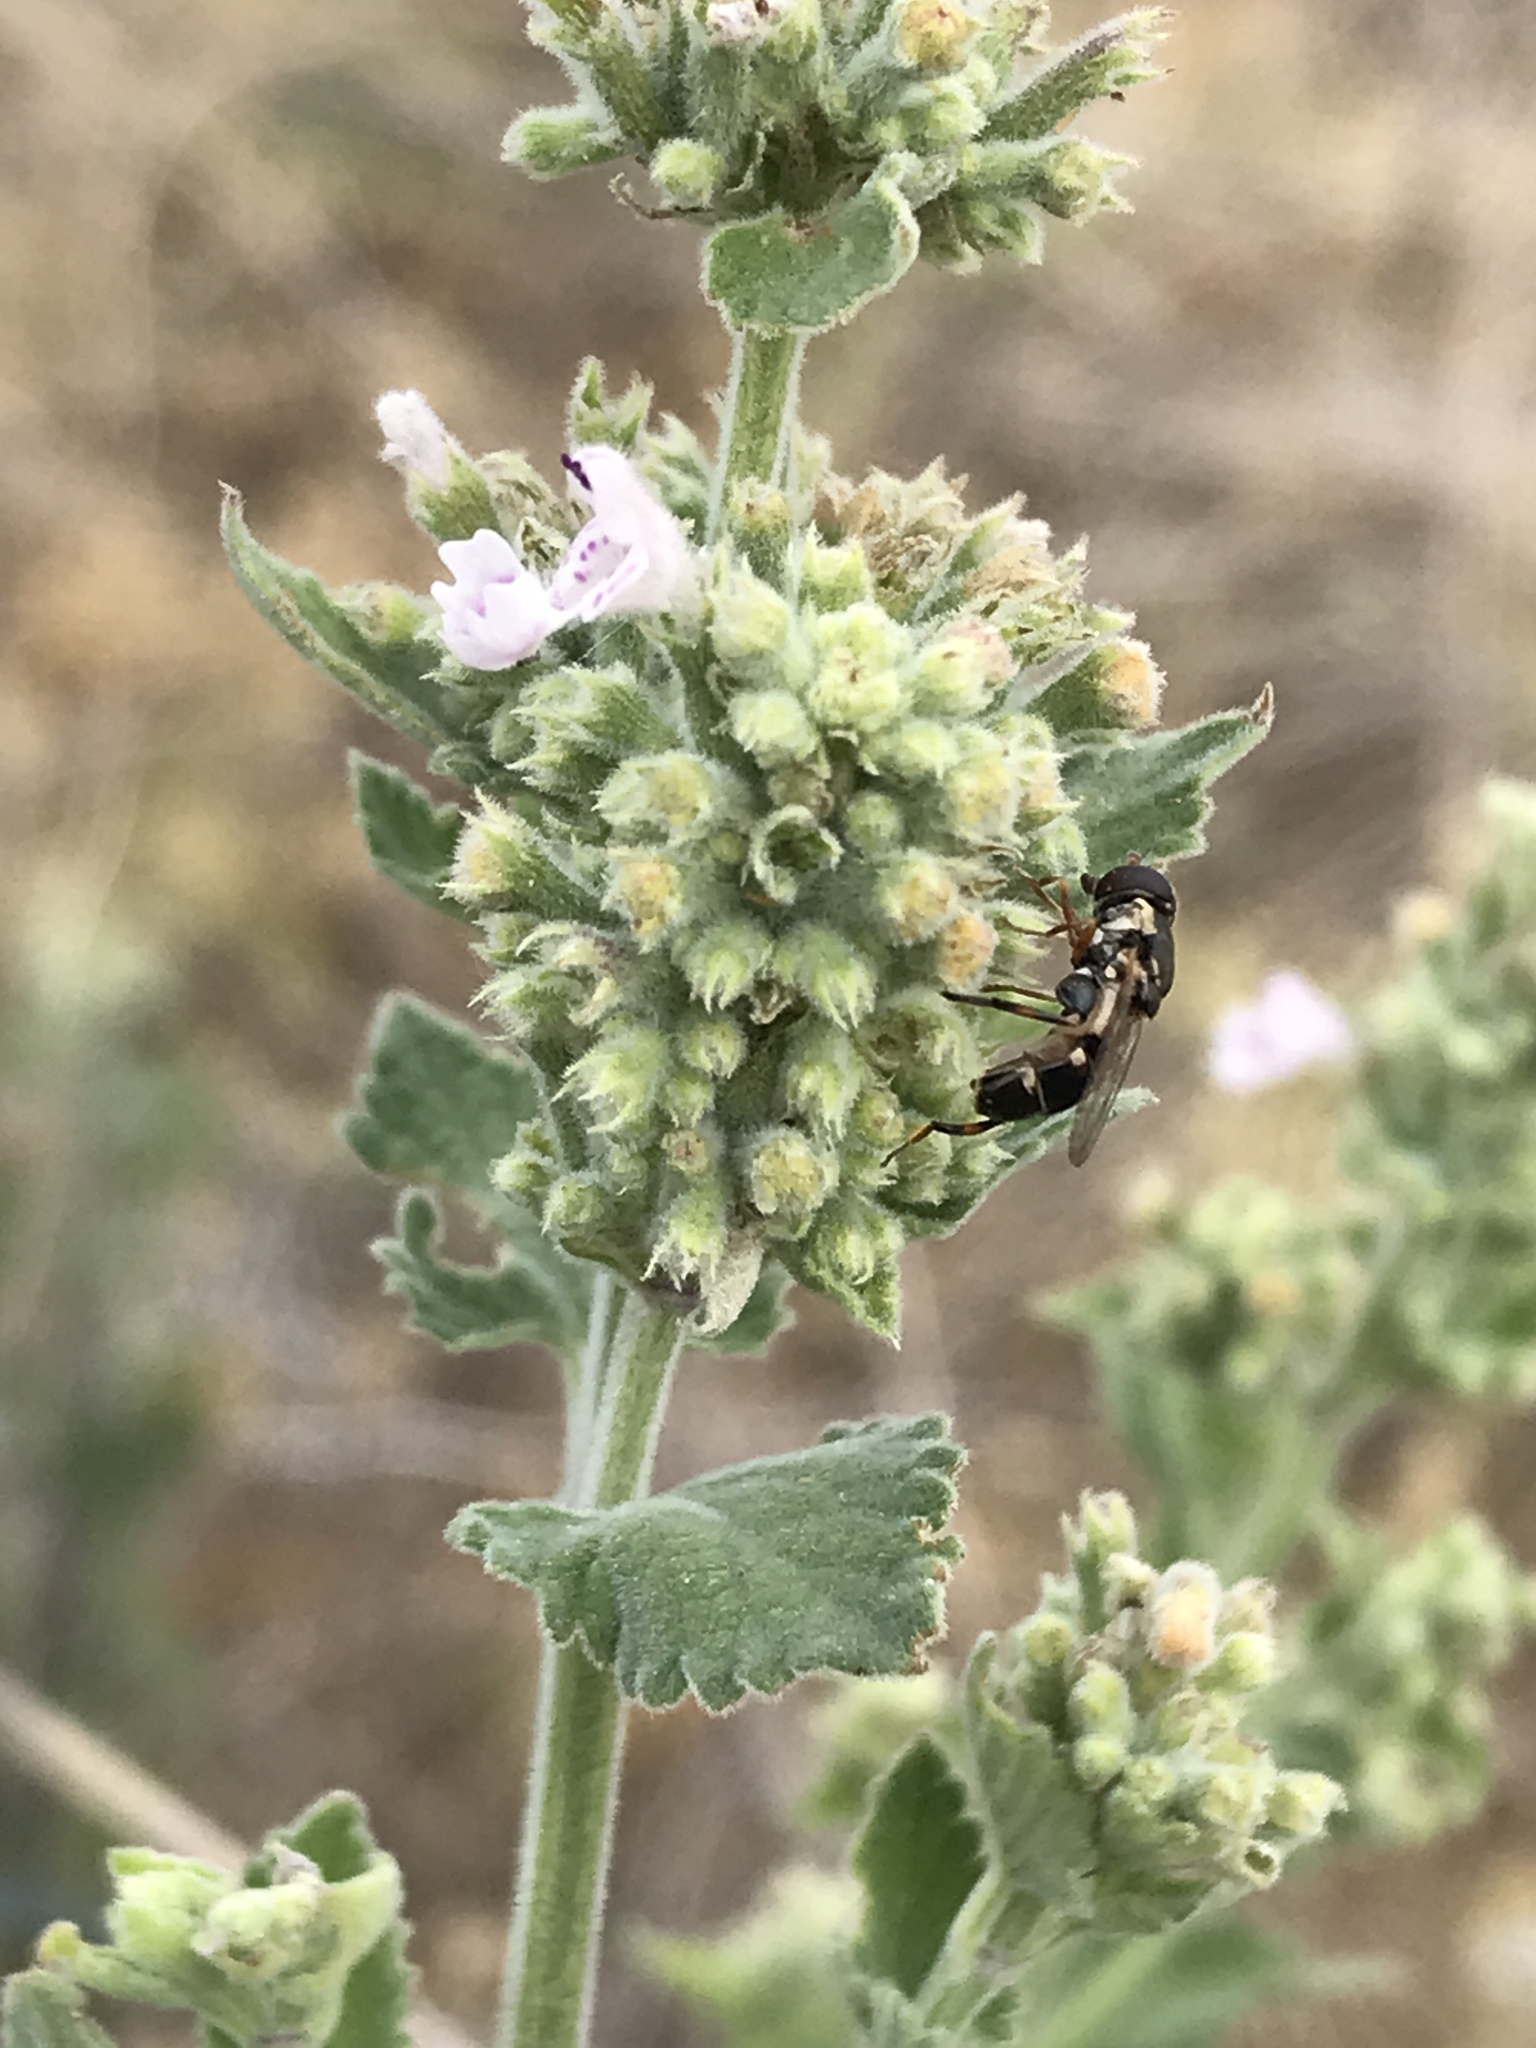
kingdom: Animalia
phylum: Arthropoda
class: Insecta
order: Diptera
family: Syrphidae
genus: Syritta
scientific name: Syritta pipiens
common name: Hover fly
